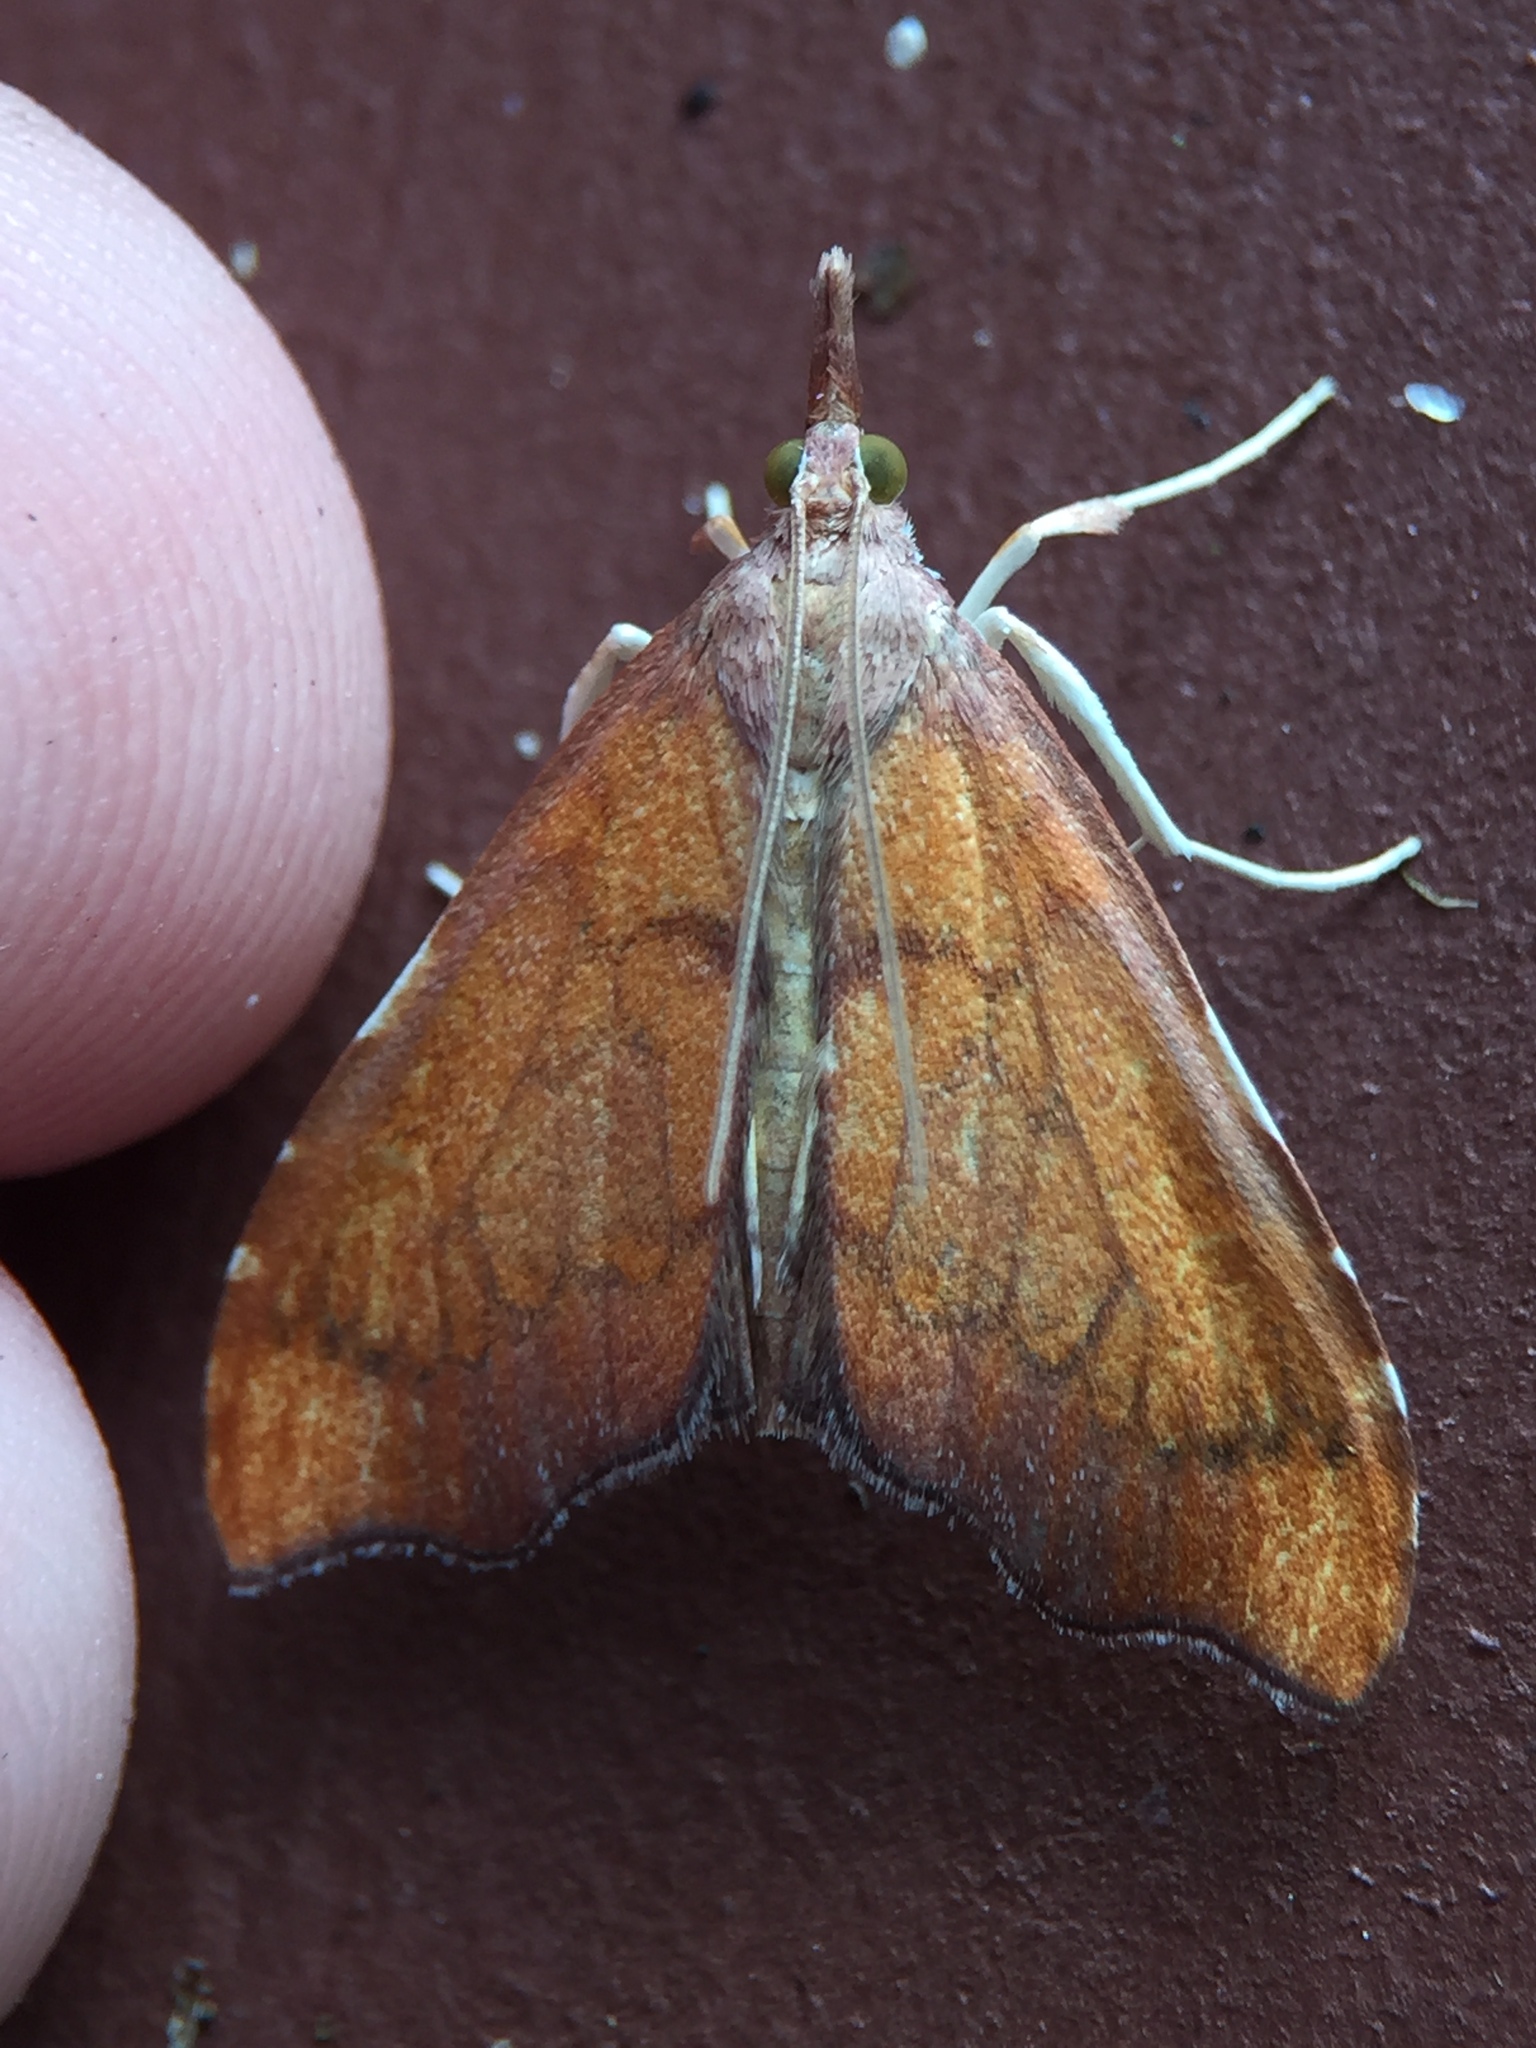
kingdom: Animalia
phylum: Arthropoda
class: Insecta
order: Lepidoptera
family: Crambidae
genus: Deana
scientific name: Deana hybreasalis
